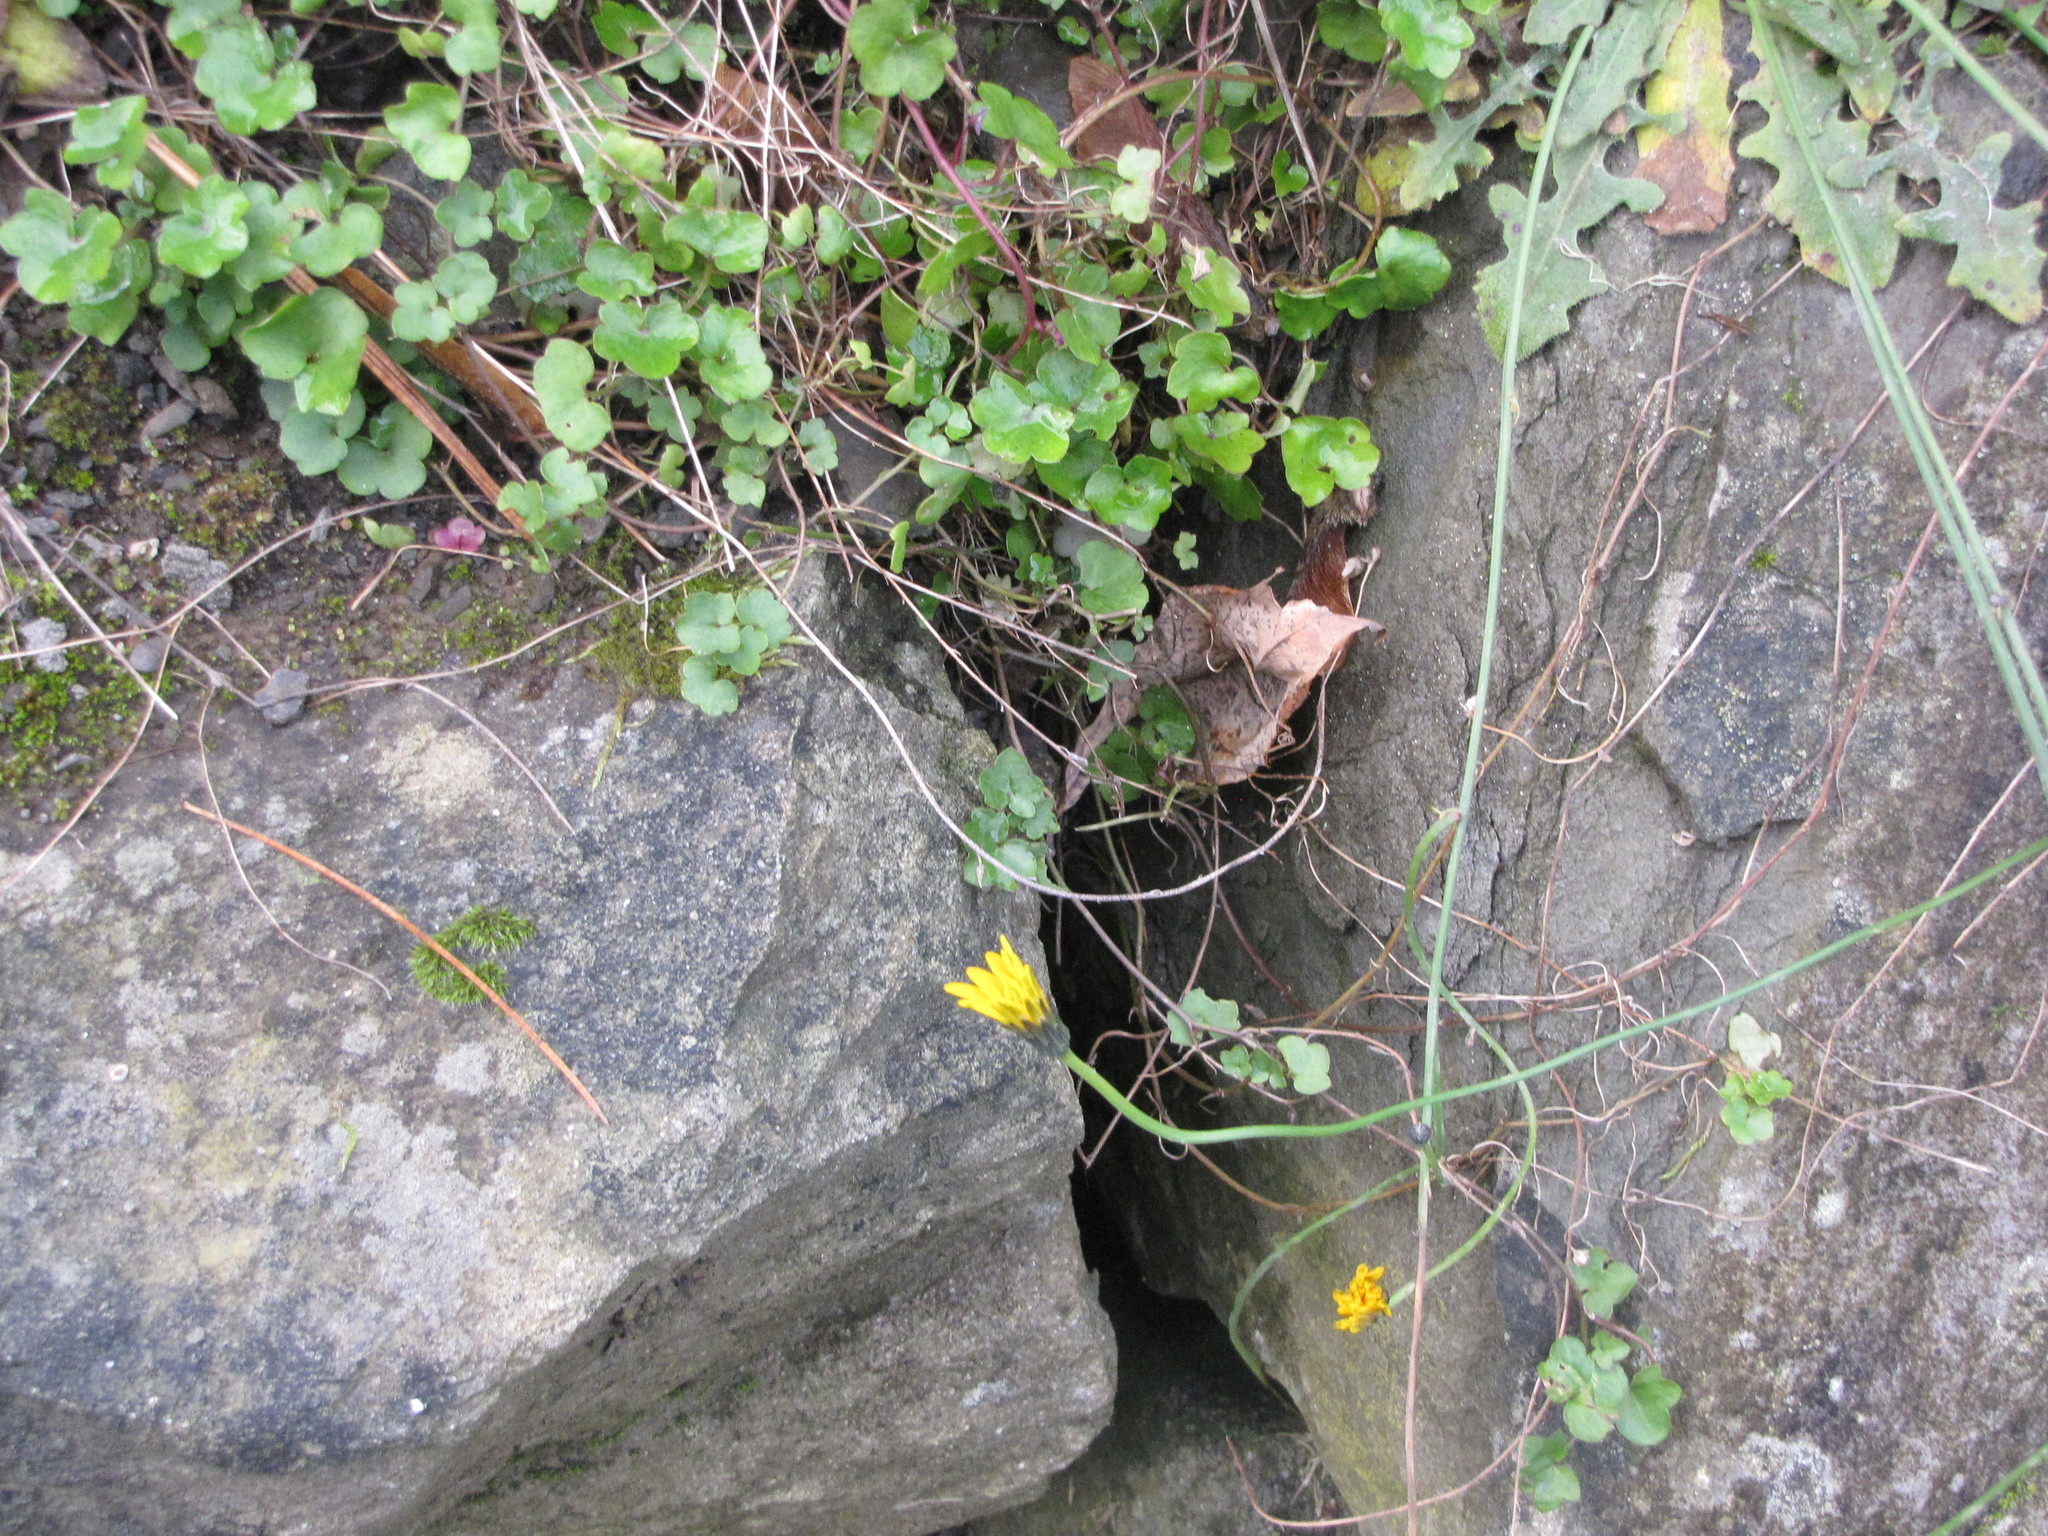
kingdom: Plantae
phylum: Tracheophyta
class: Magnoliopsida
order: Asterales
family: Asteraceae
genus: Taraxacum
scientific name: Taraxacum officinale
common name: Common dandelion
